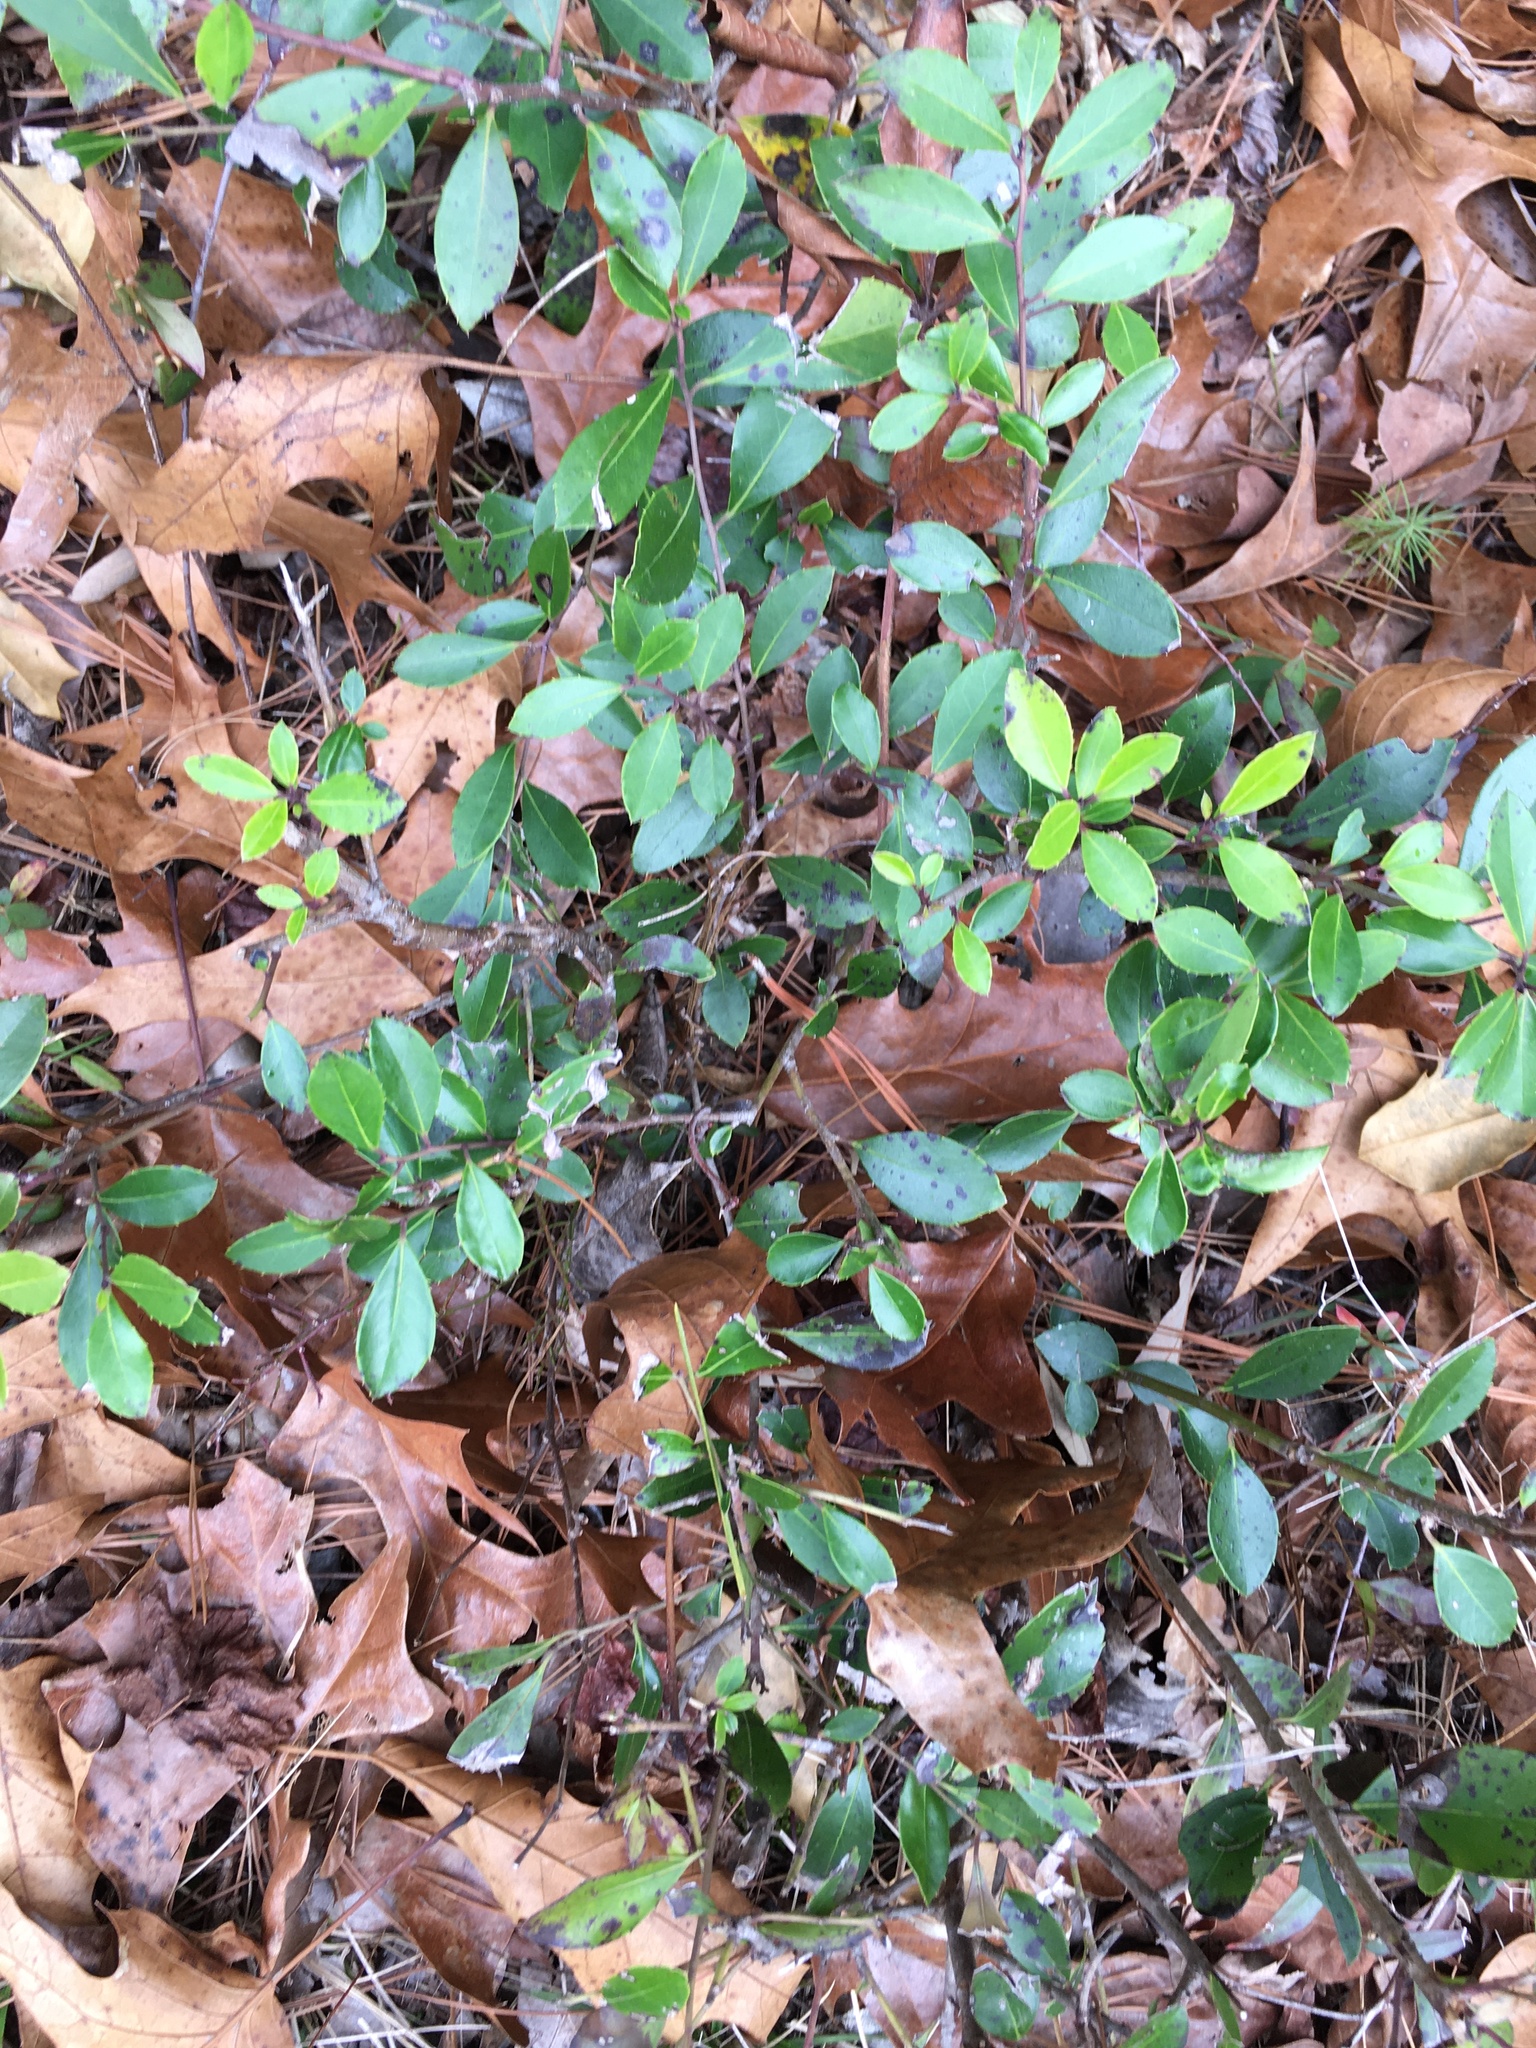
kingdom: Plantae
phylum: Tracheophyta
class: Magnoliopsida
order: Aquifoliales
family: Aquifoliaceae
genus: Ilex
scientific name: Ilex glabra
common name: Bitter gallberry
